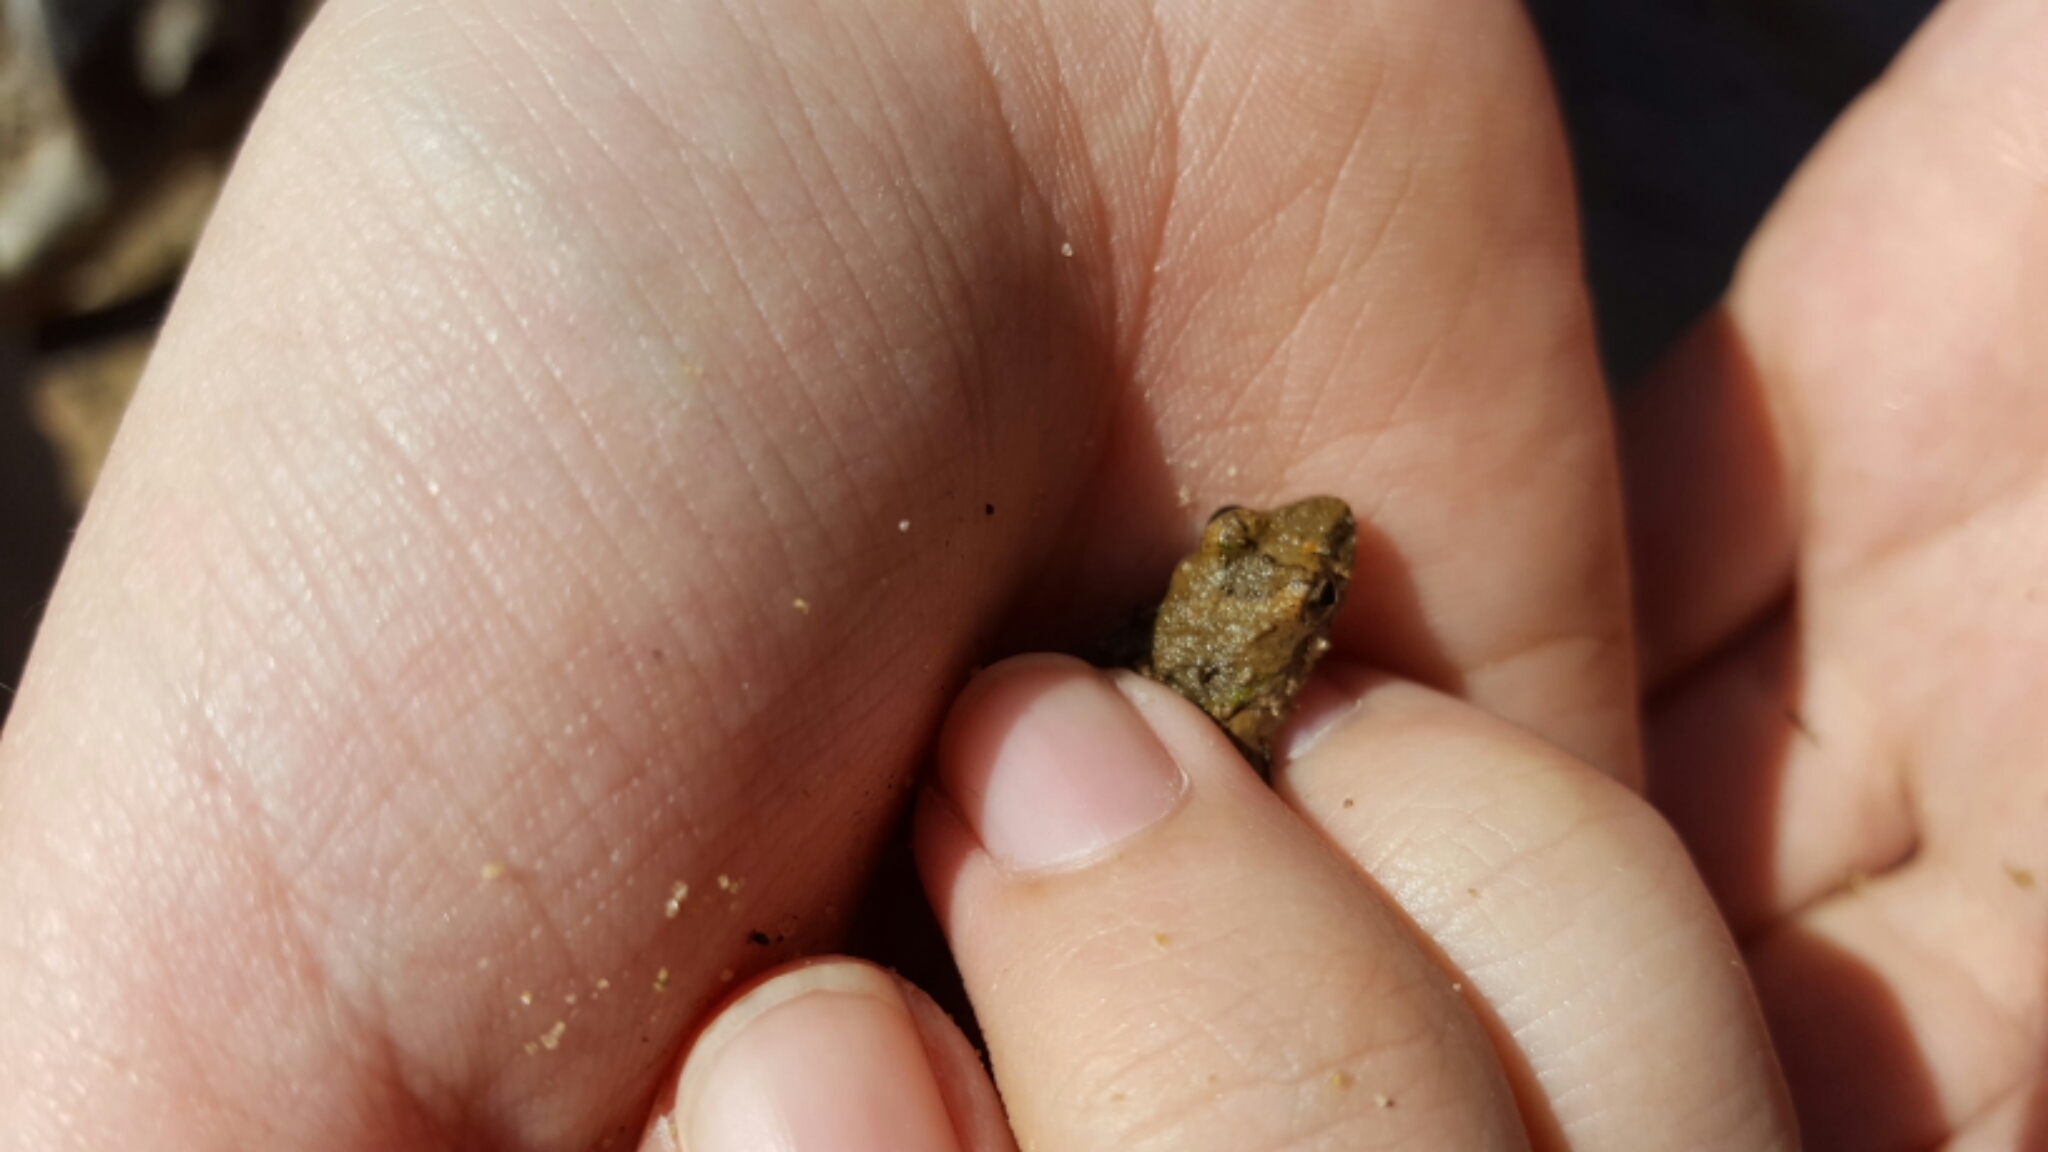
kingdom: Animalia
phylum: Chordata
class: Amphibia
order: Anura
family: Hylidae
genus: Acris
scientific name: Acris blanchardi
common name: Blanchard's cricket frog
